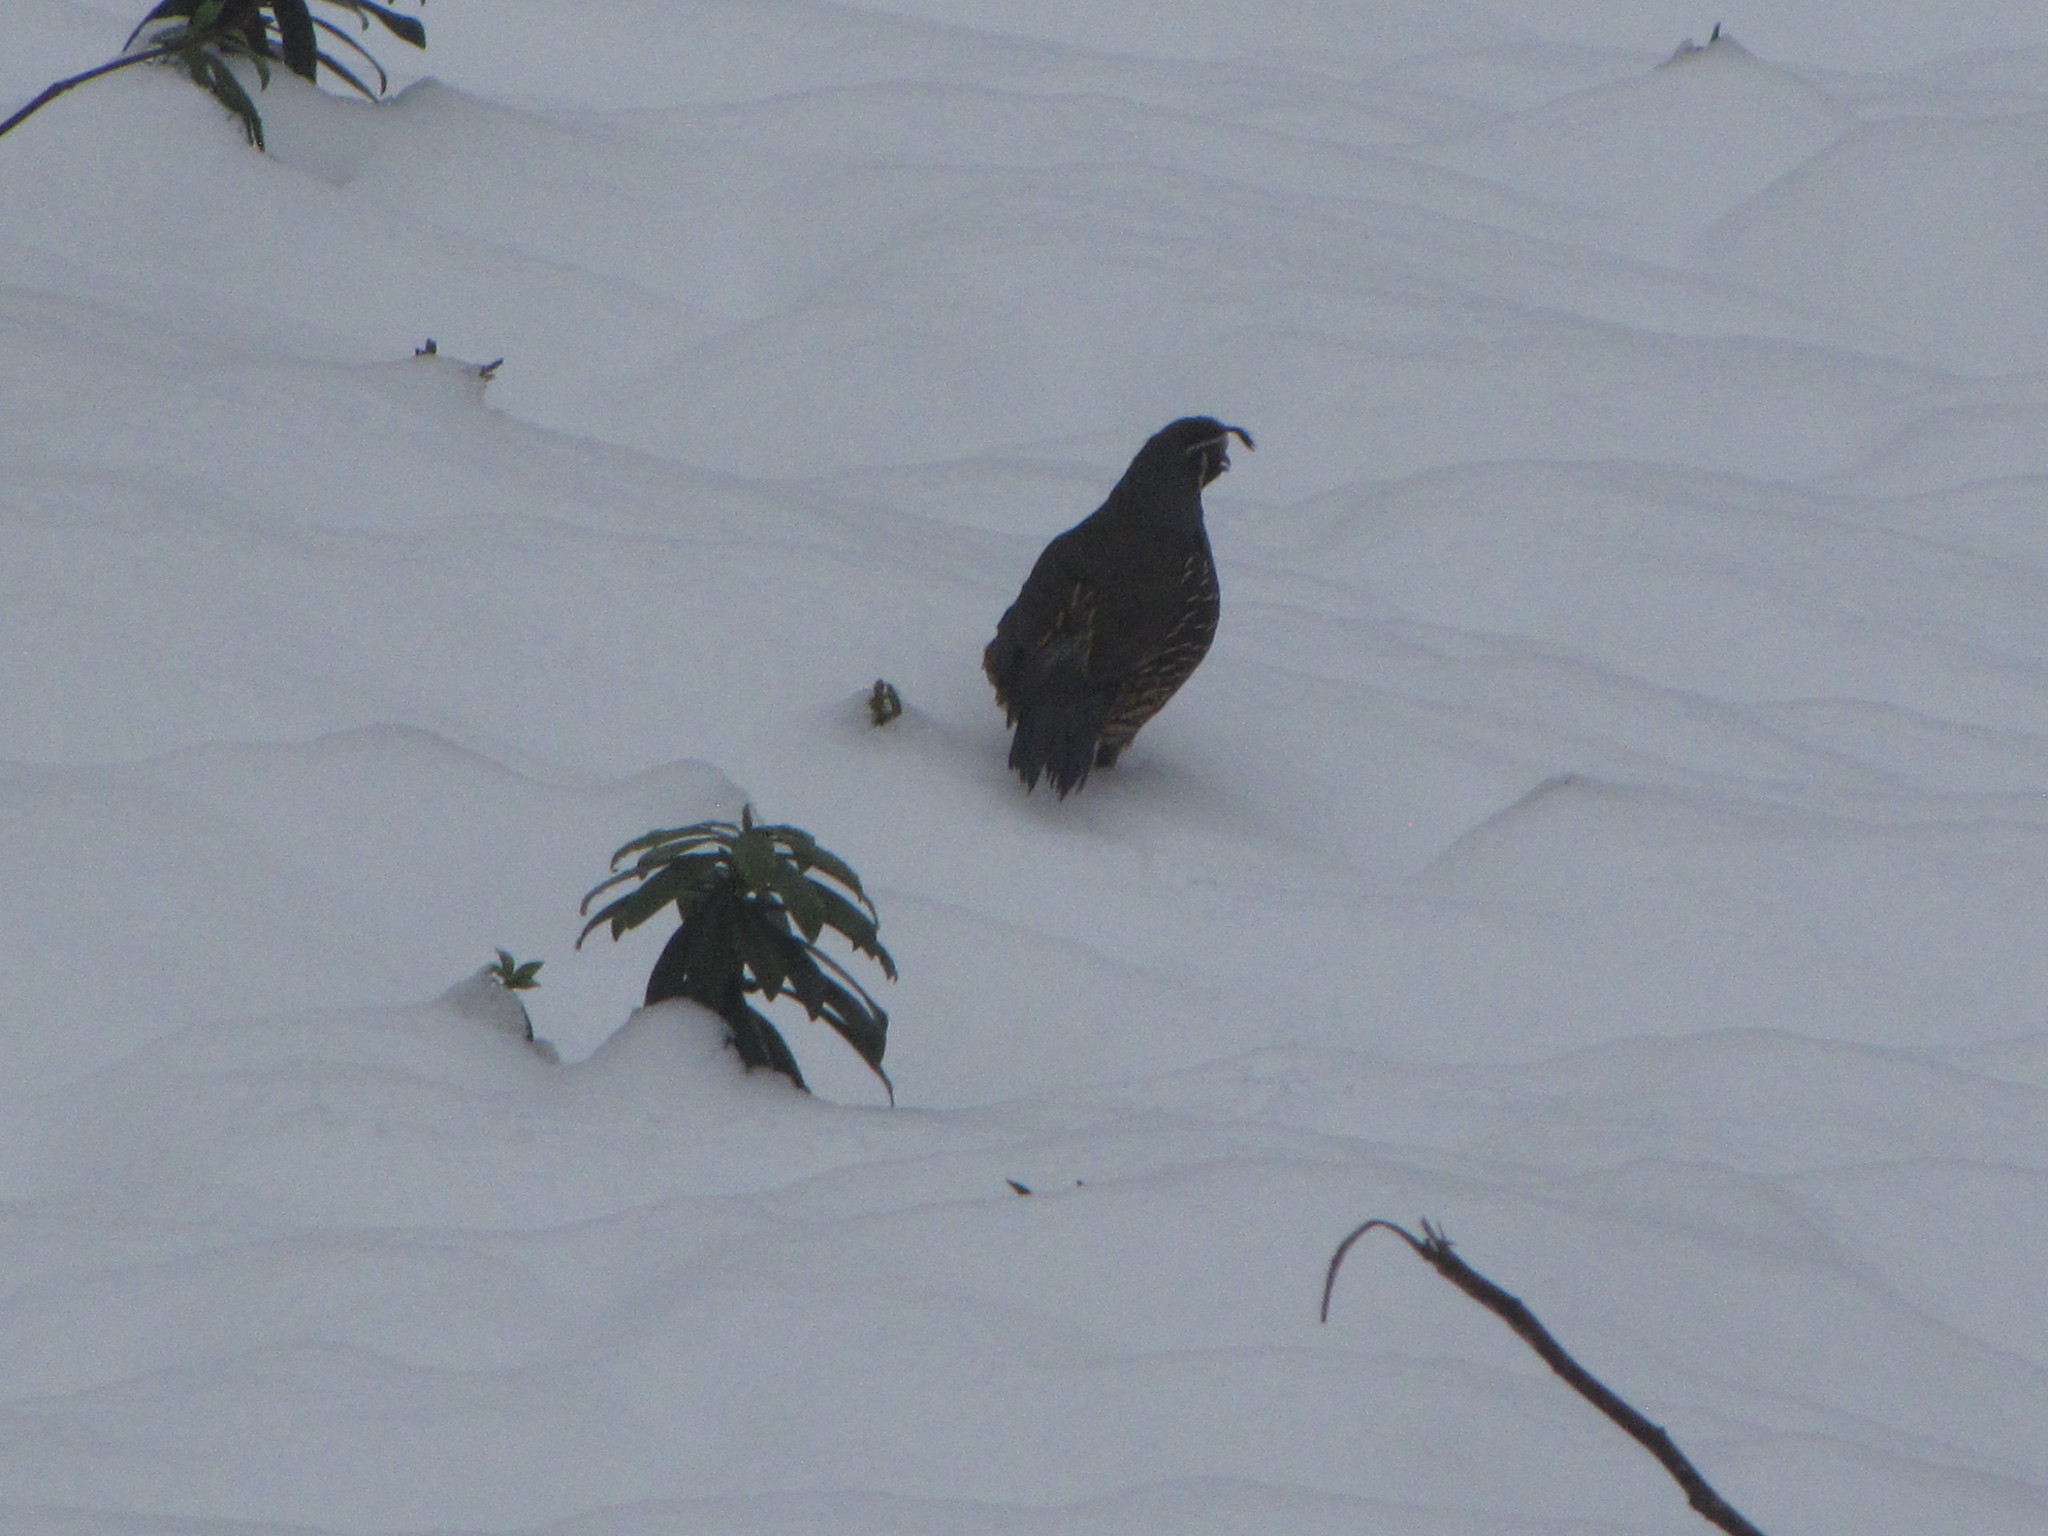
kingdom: Animalia
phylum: Chordata
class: Aves
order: Galliformes
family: Odontophoridae
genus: Callipepla
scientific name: Callipepla californica
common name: California quail
